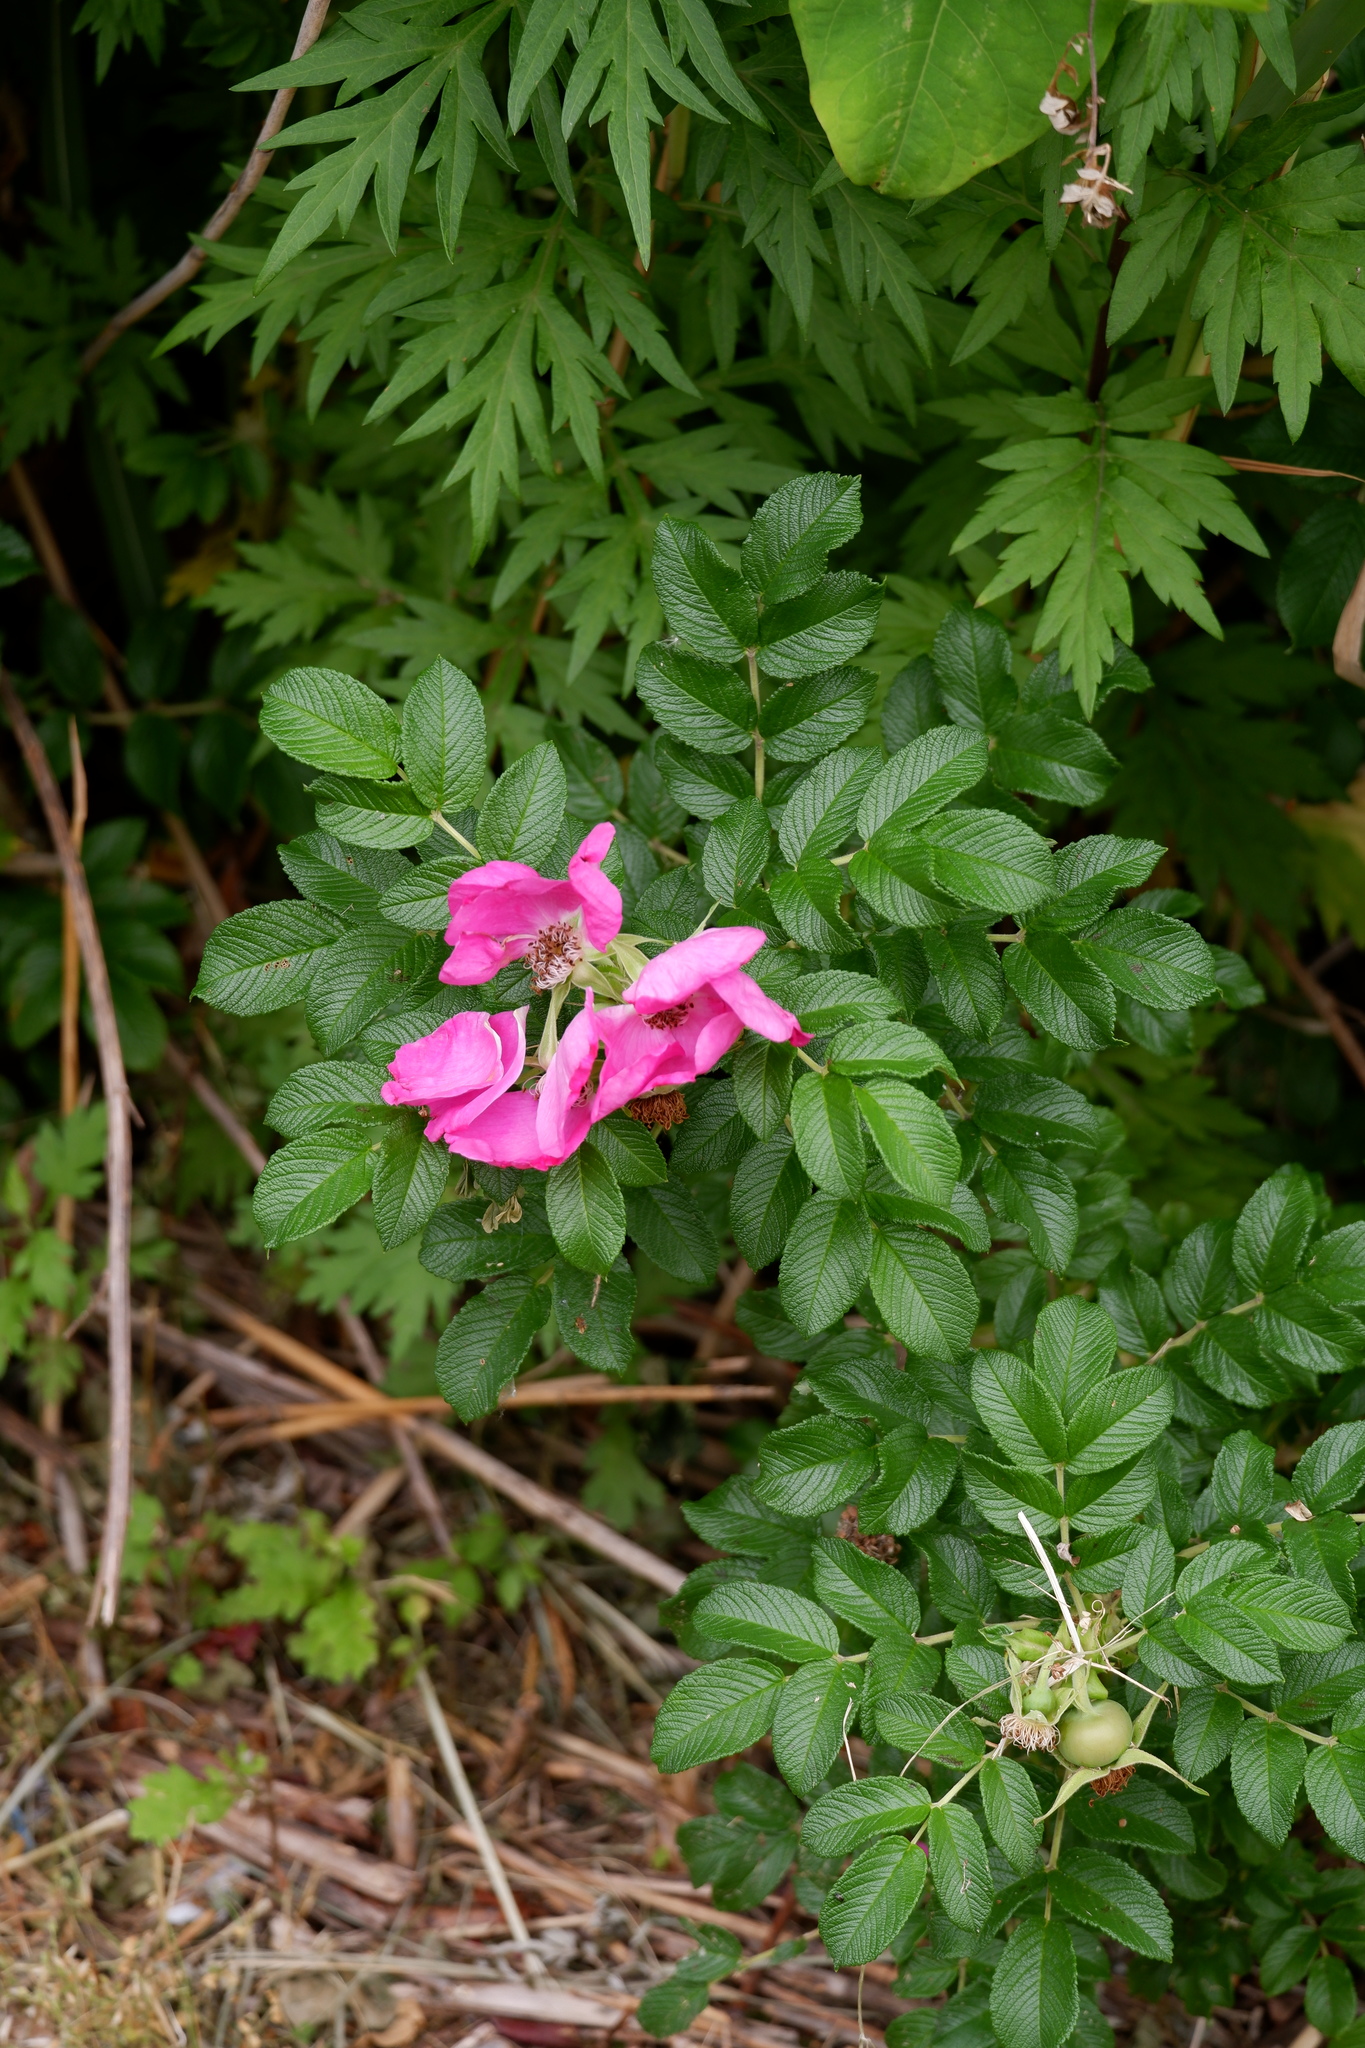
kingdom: Plantae
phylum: Tracheophyta
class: Magnoliopsida
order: Rosales
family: Rosaceae
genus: Rosa
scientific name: Rosa rugosa
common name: Japanese rose
